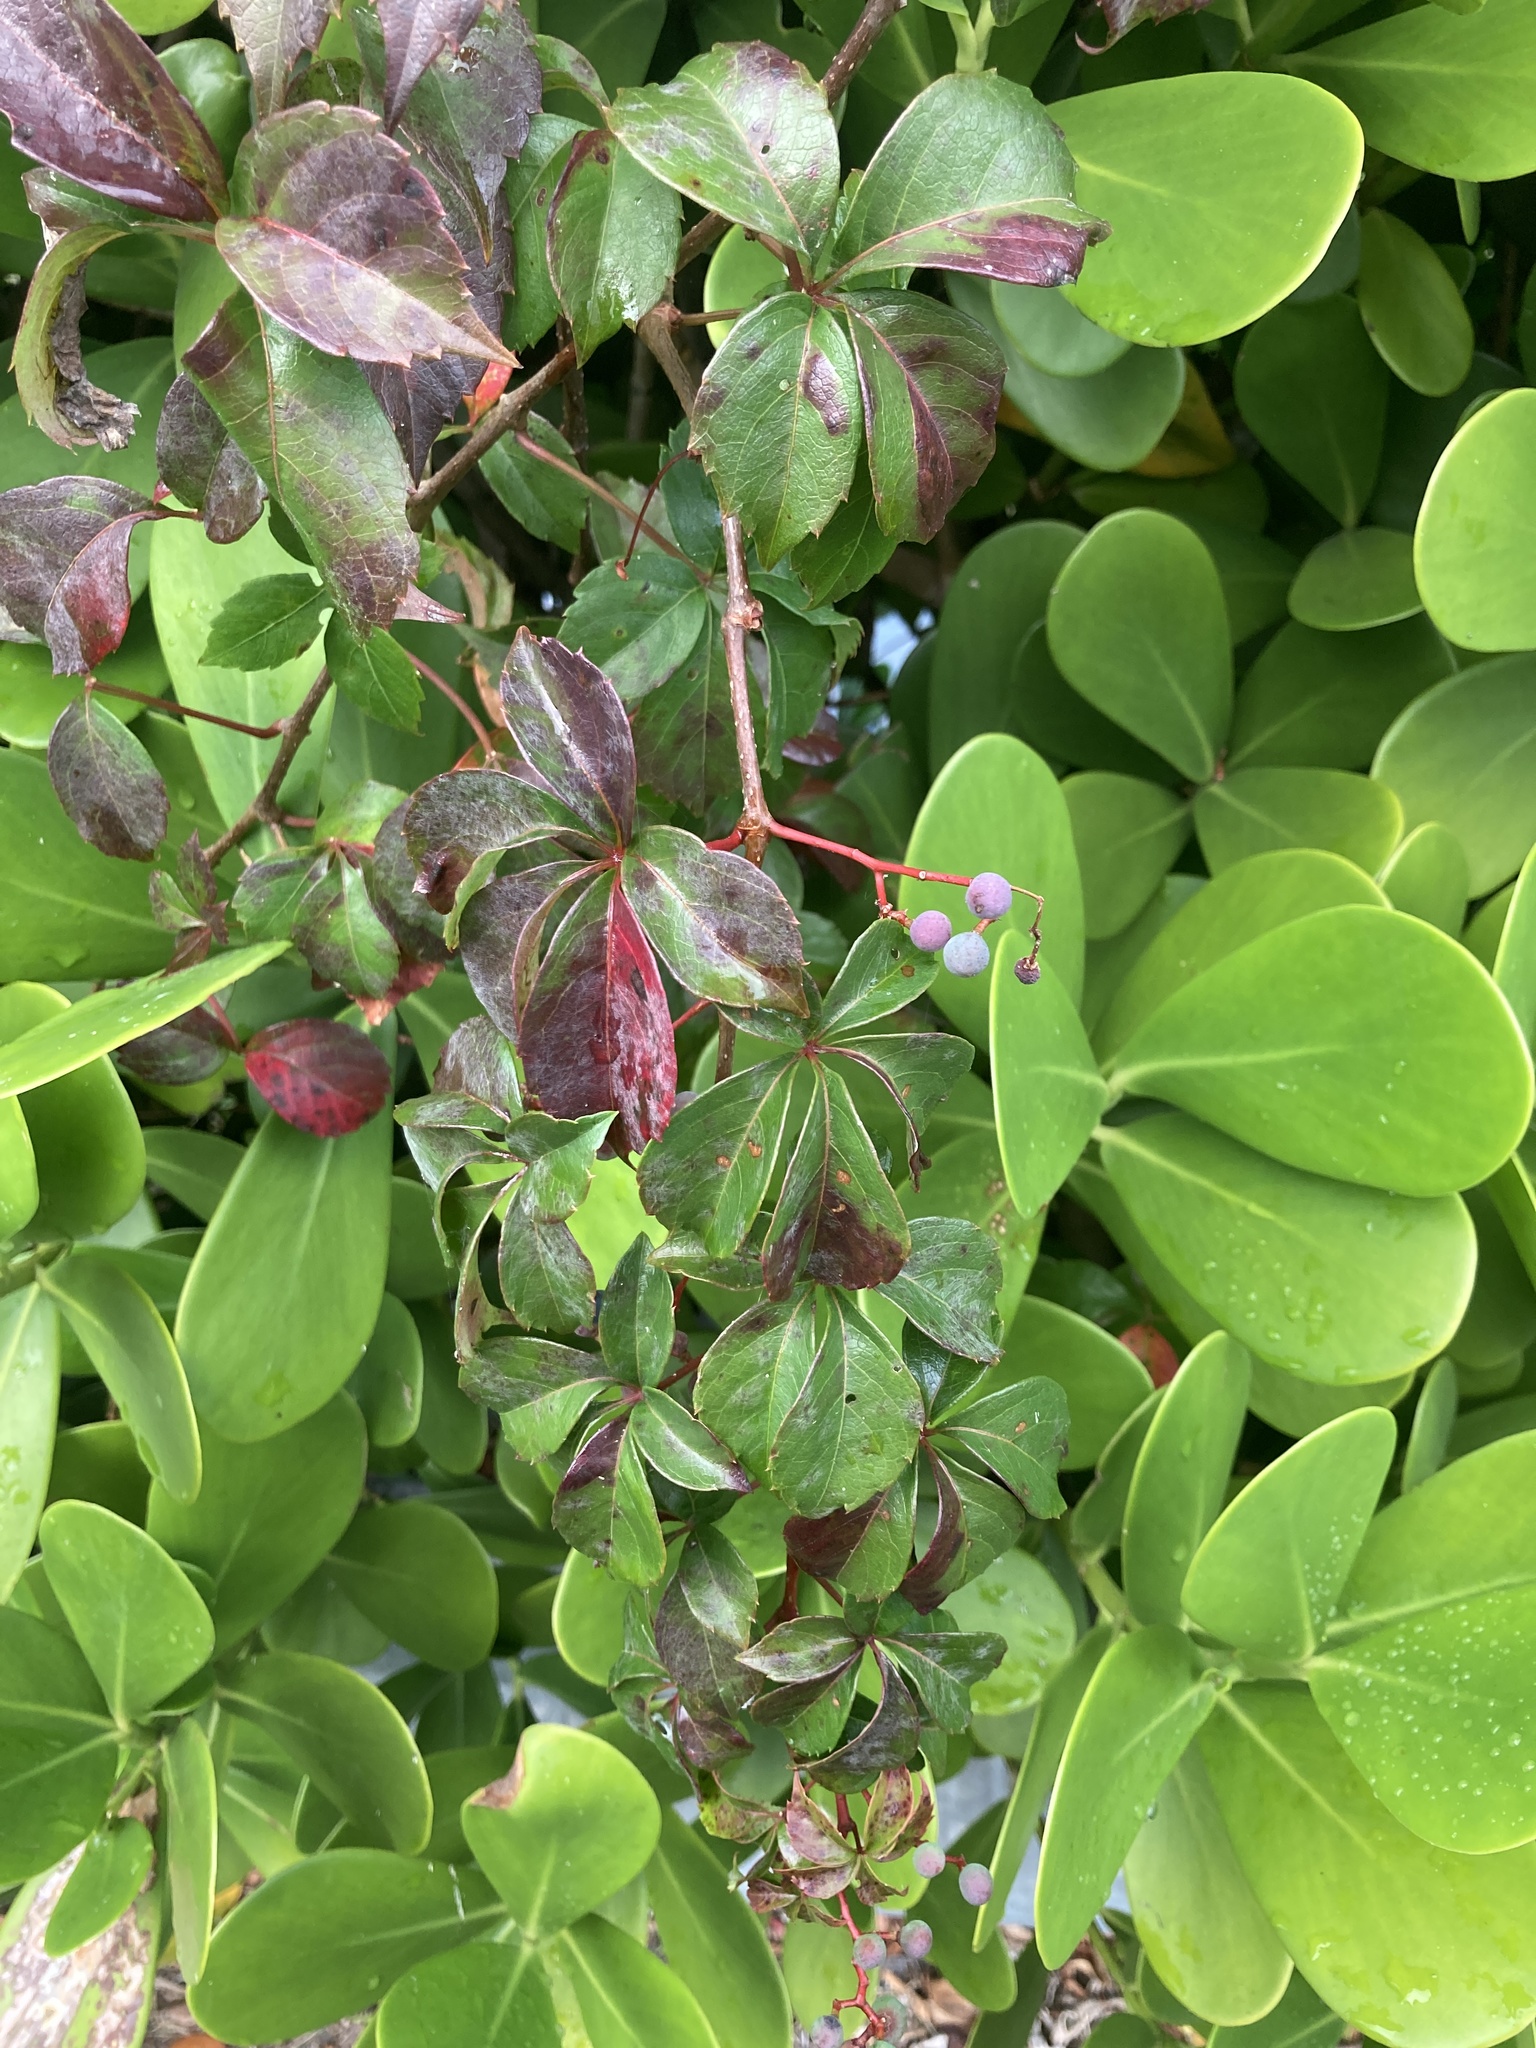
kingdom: Plantae
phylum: Tracheophyta
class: Magnoliopsida
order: Vitales
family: Vitaceae
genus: Parthenocissus
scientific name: Parthenocissus quinquefolia
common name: Virginia-creeper
